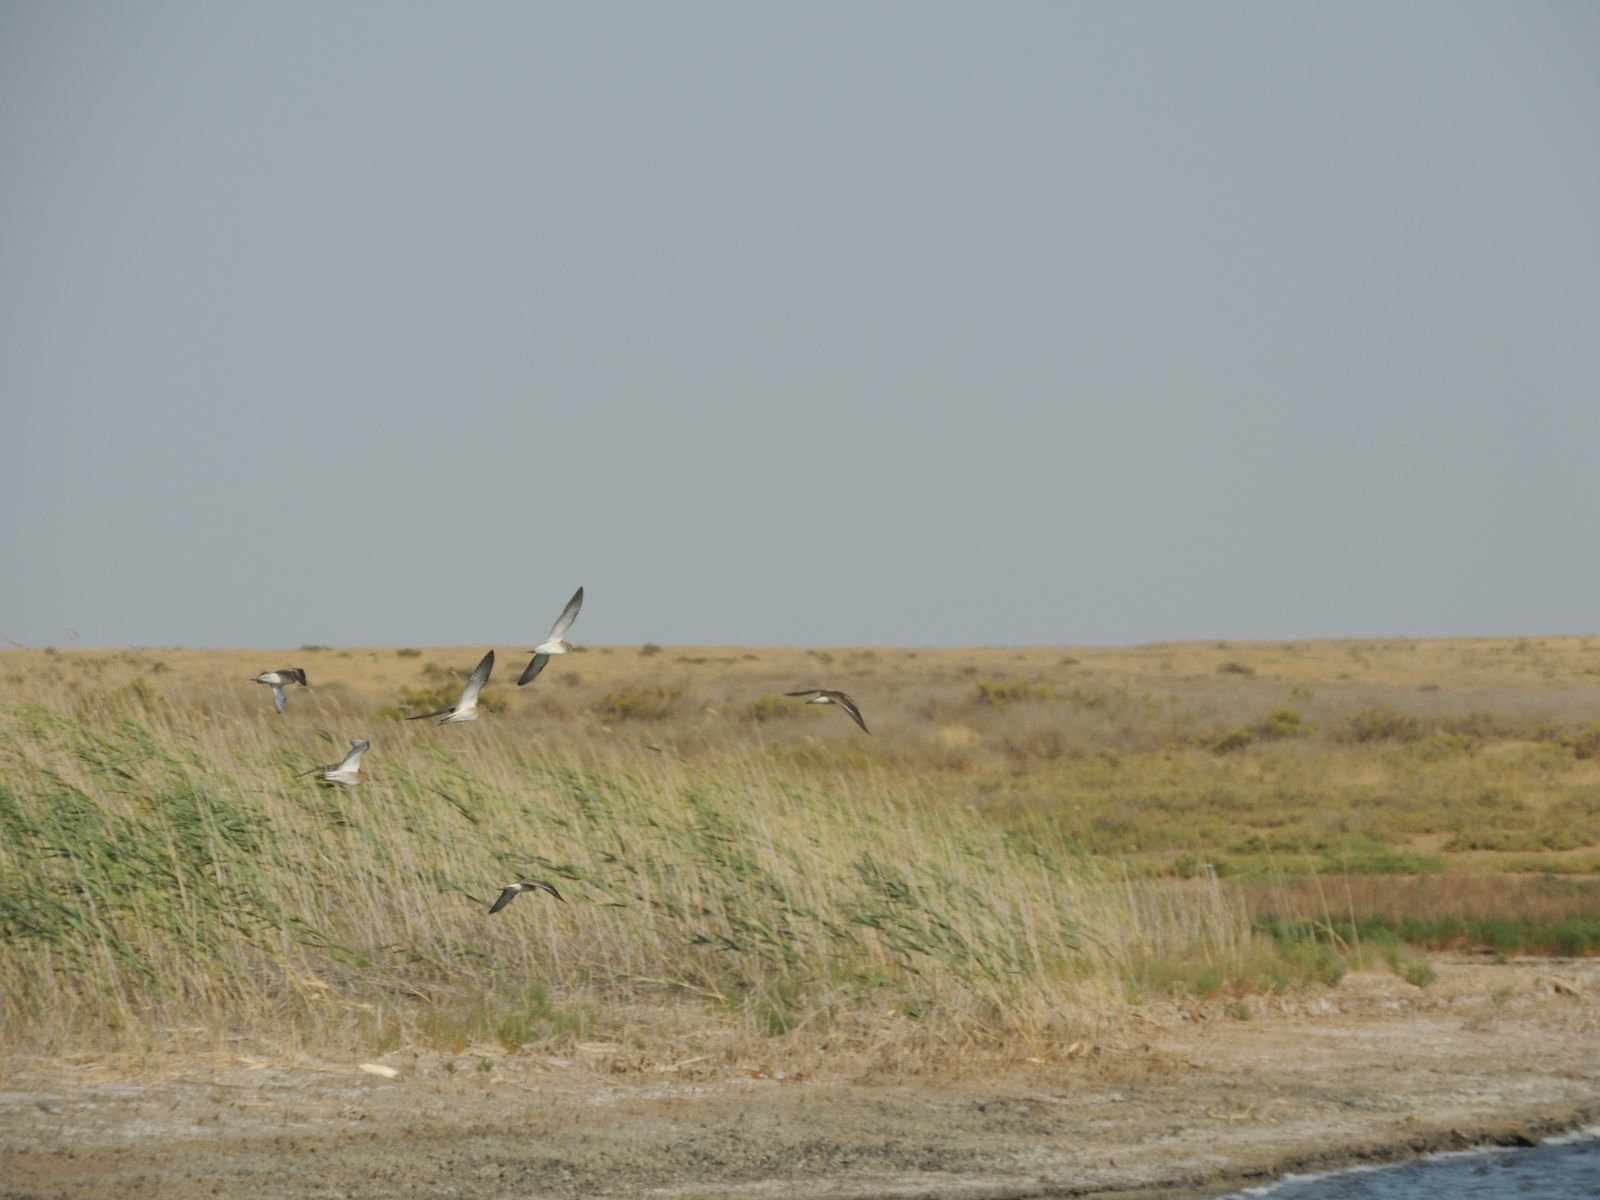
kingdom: Animalia
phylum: Chordata
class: Aves
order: Charadriiformes
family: Scolopacidae
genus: Calidris
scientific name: Calidris pugnax
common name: Ruff
